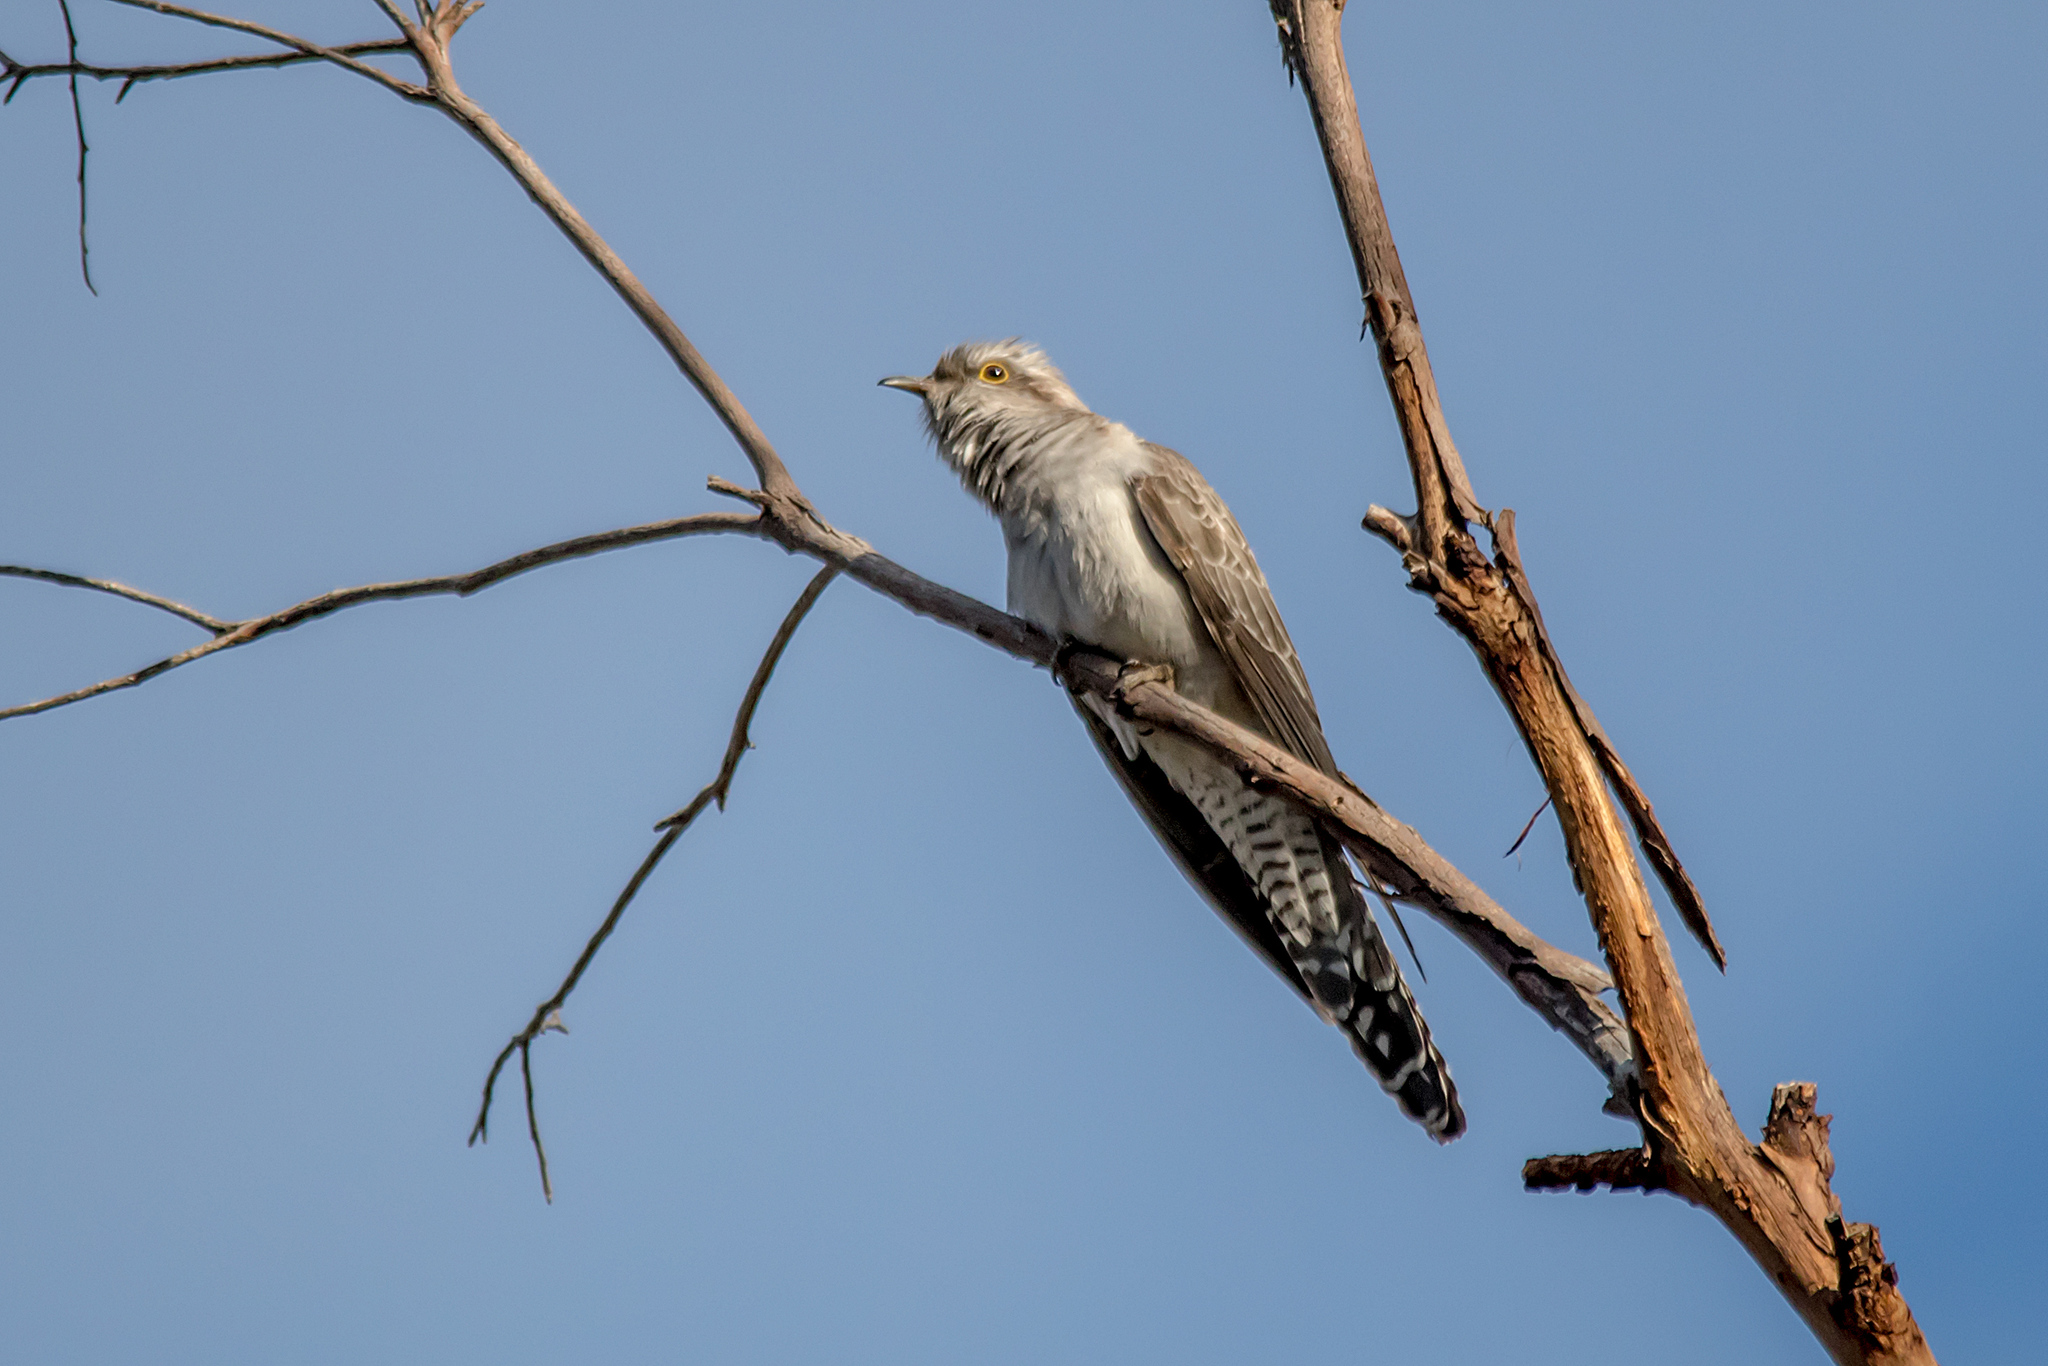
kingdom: Animalia
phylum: Chordata
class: Aves
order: Cuculiformes
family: Cuculidae
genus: Cuculus
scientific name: Cuculus pallidus
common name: Pallid cuckoo
